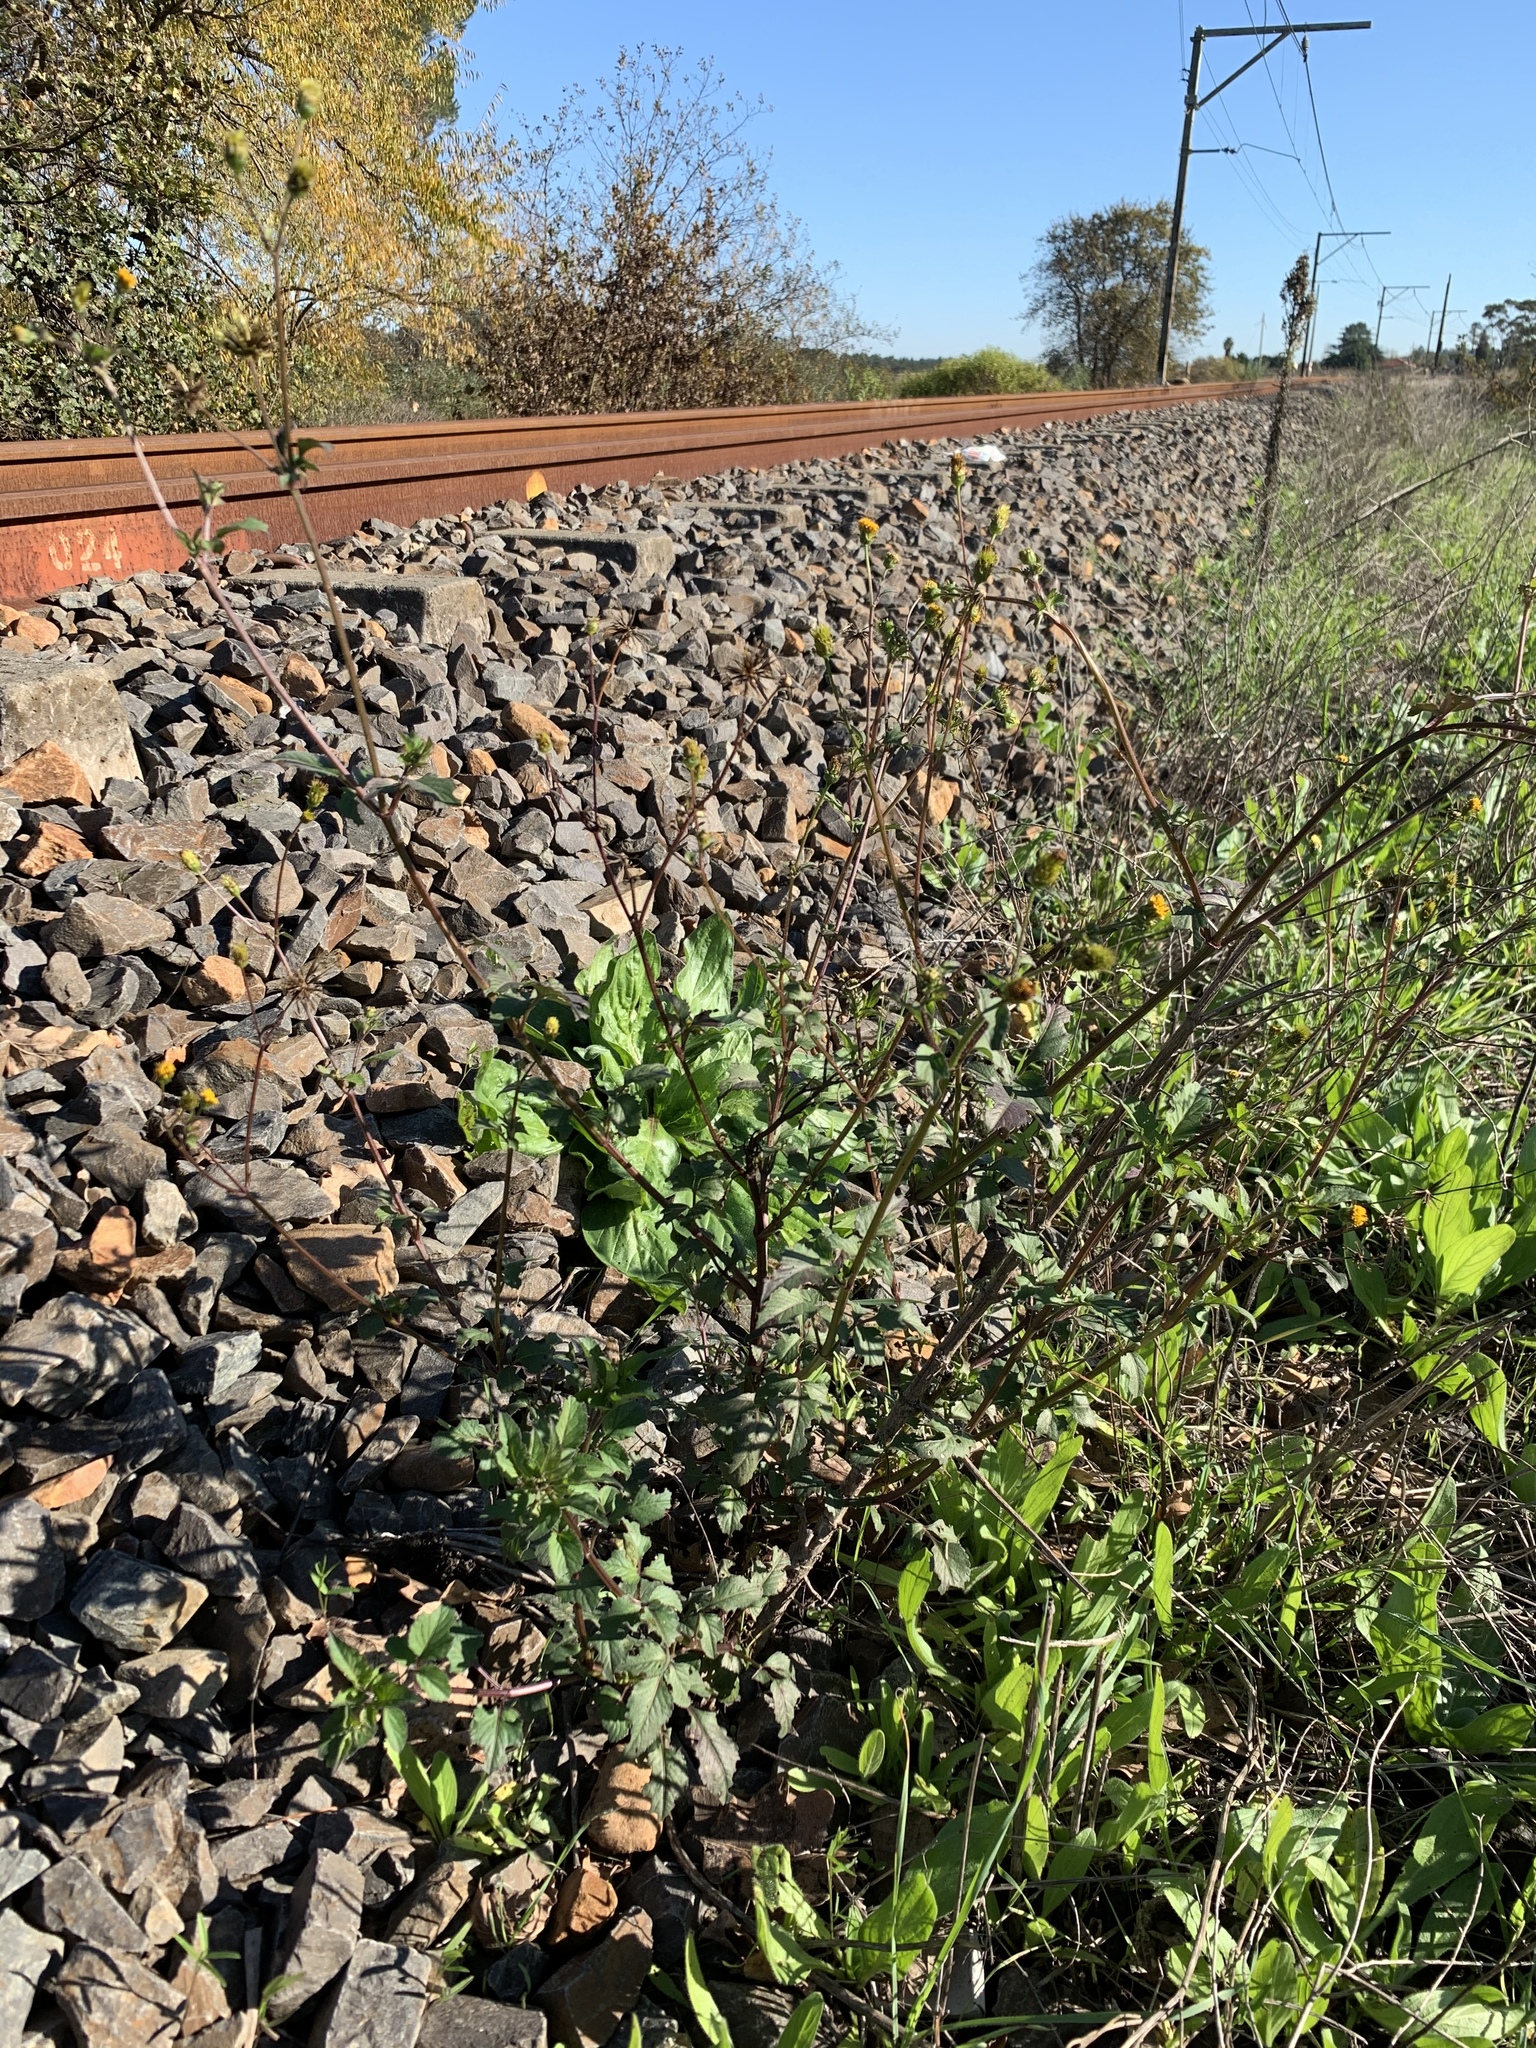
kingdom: Plantae
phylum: Tracheophyta
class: Magnoliopsida
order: Asterales
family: Asteraceae
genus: Bidens
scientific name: Bidens pilosa
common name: Black-jack
